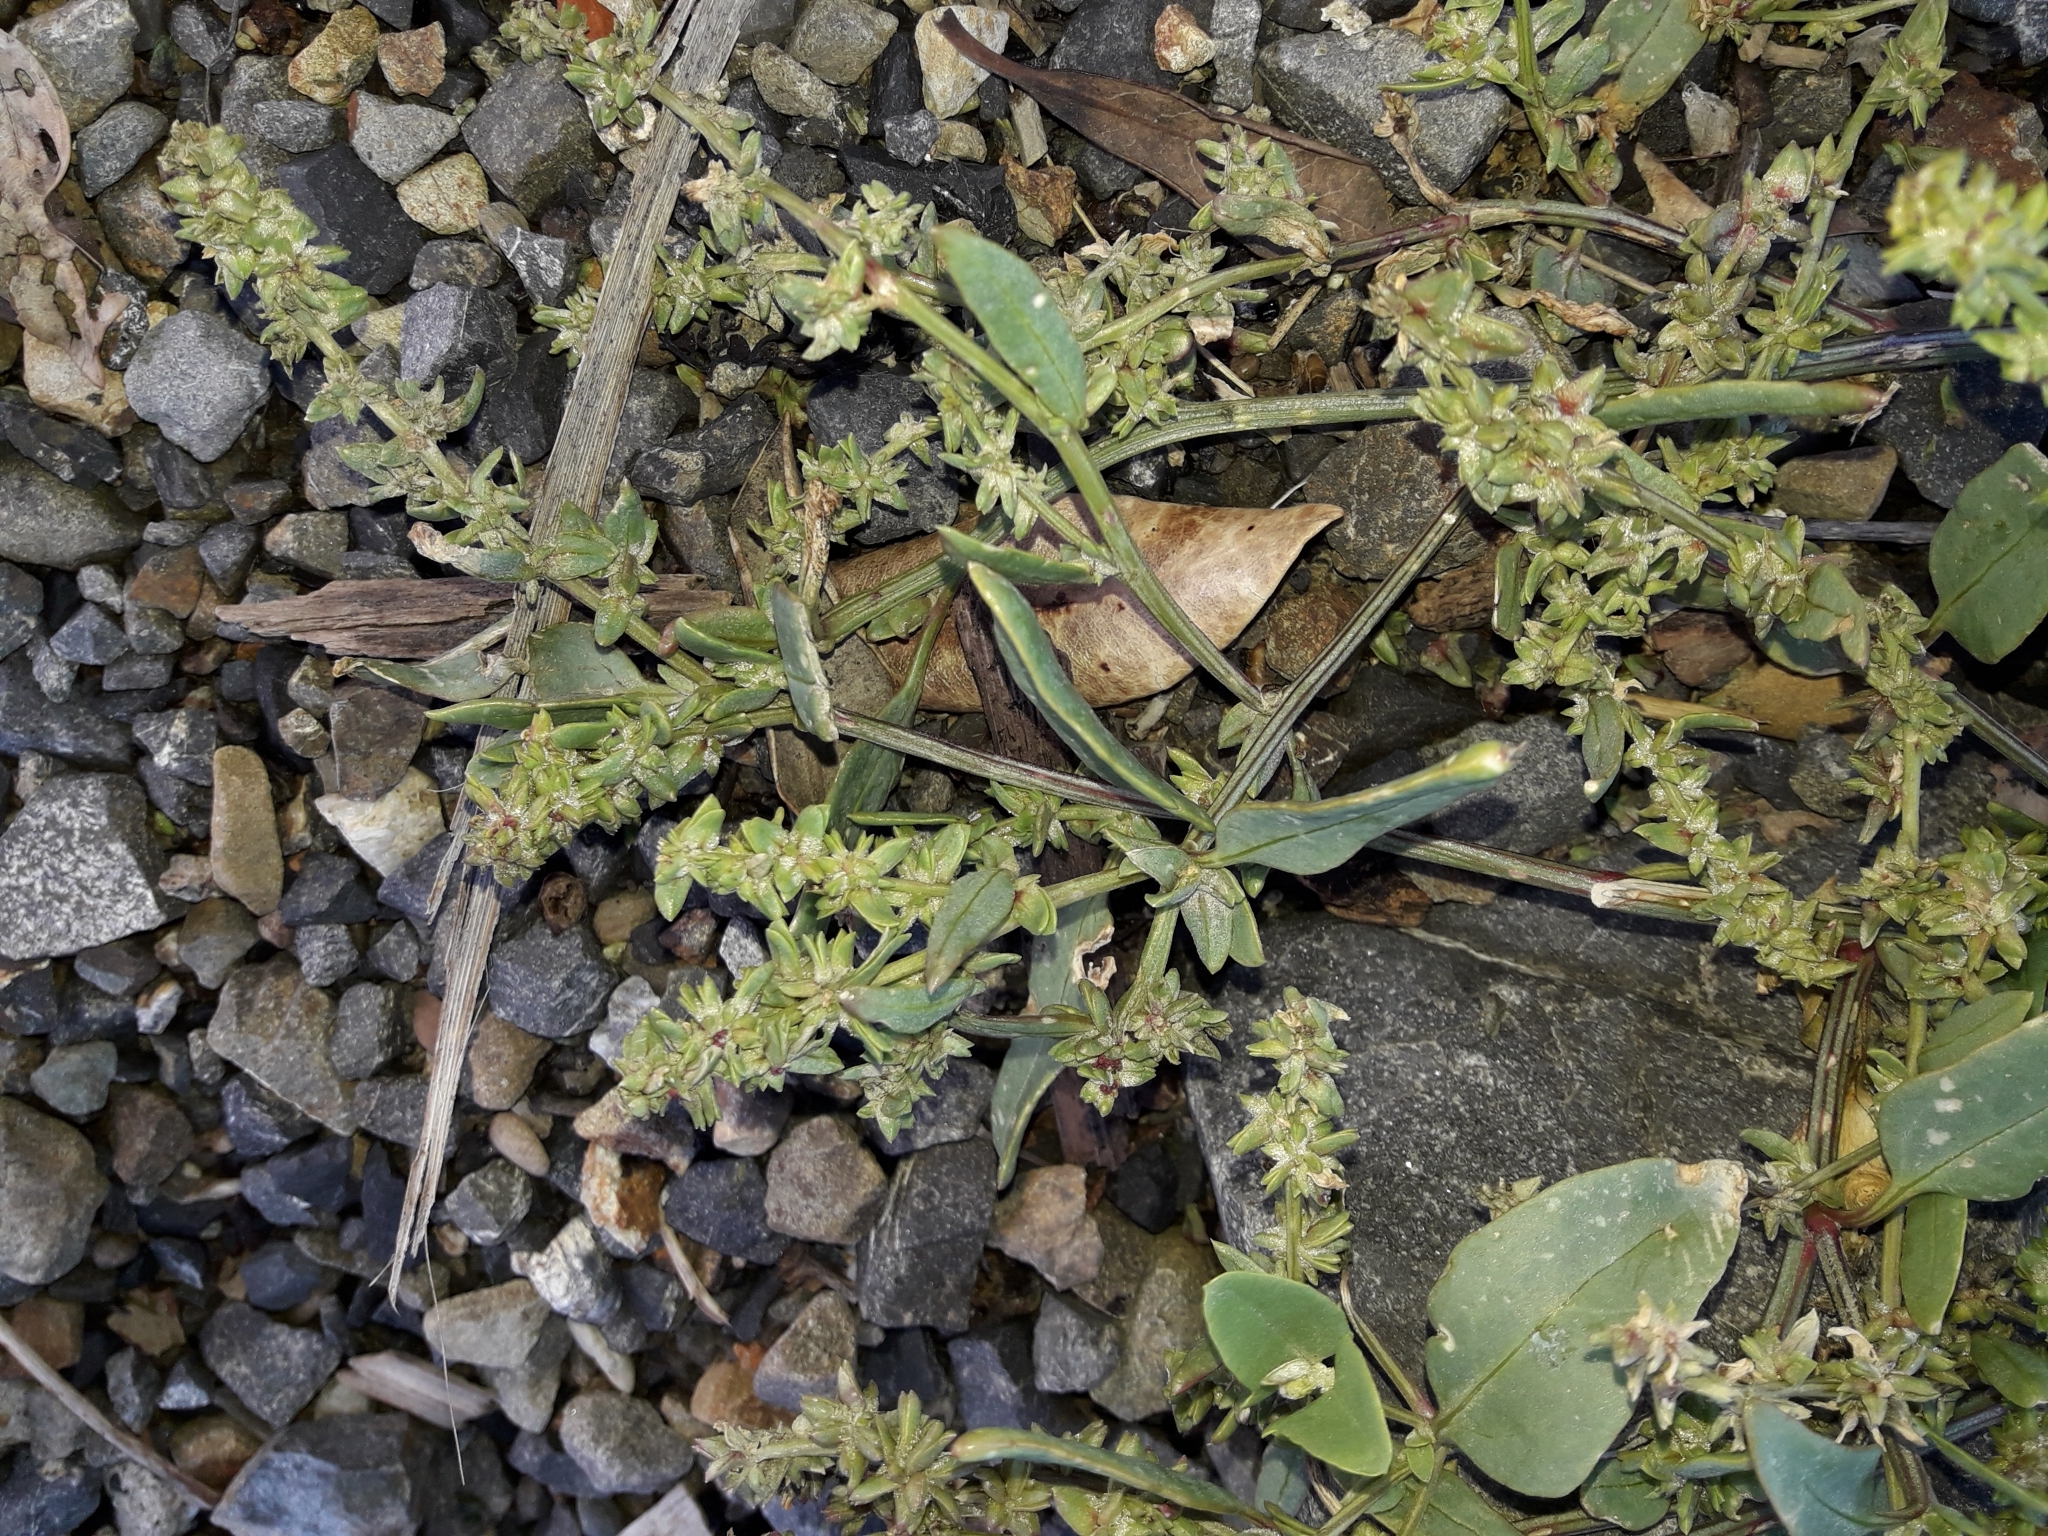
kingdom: Plantae
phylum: Tracheophyta
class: Magnoliopsida
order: Caryophyllales
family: Amaranthaceae
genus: Atriplex
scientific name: Atriplex prostrata
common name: Spear-leaved orache
